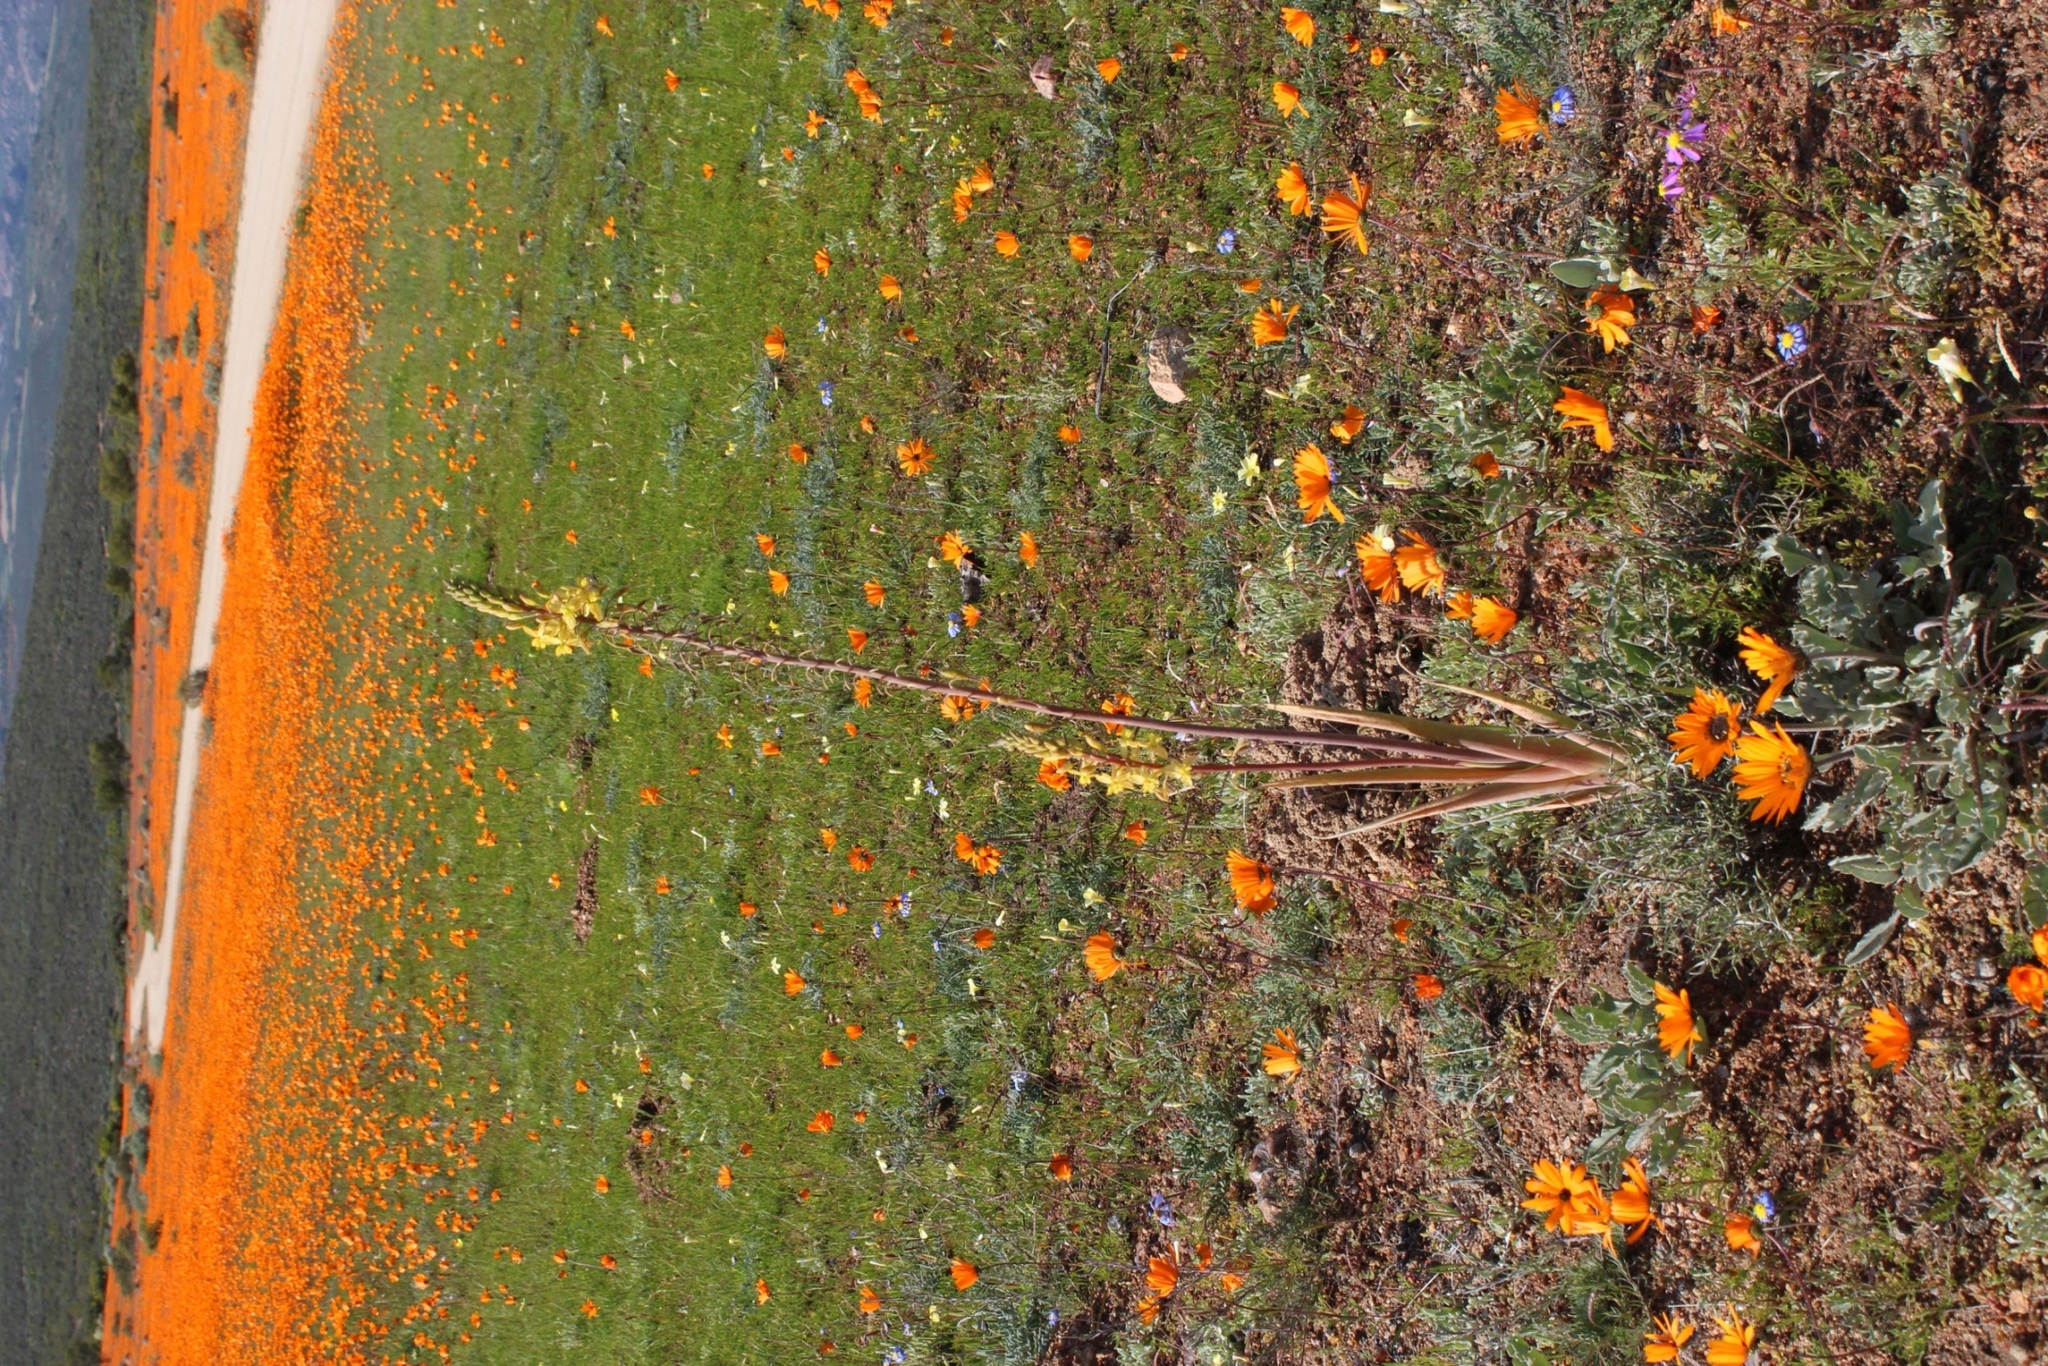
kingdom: Plantae
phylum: Tracheophyta
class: Liliopsida
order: Asparagales
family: Asphodelaceae
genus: Bulbine
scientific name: Bulbine praemorsa
